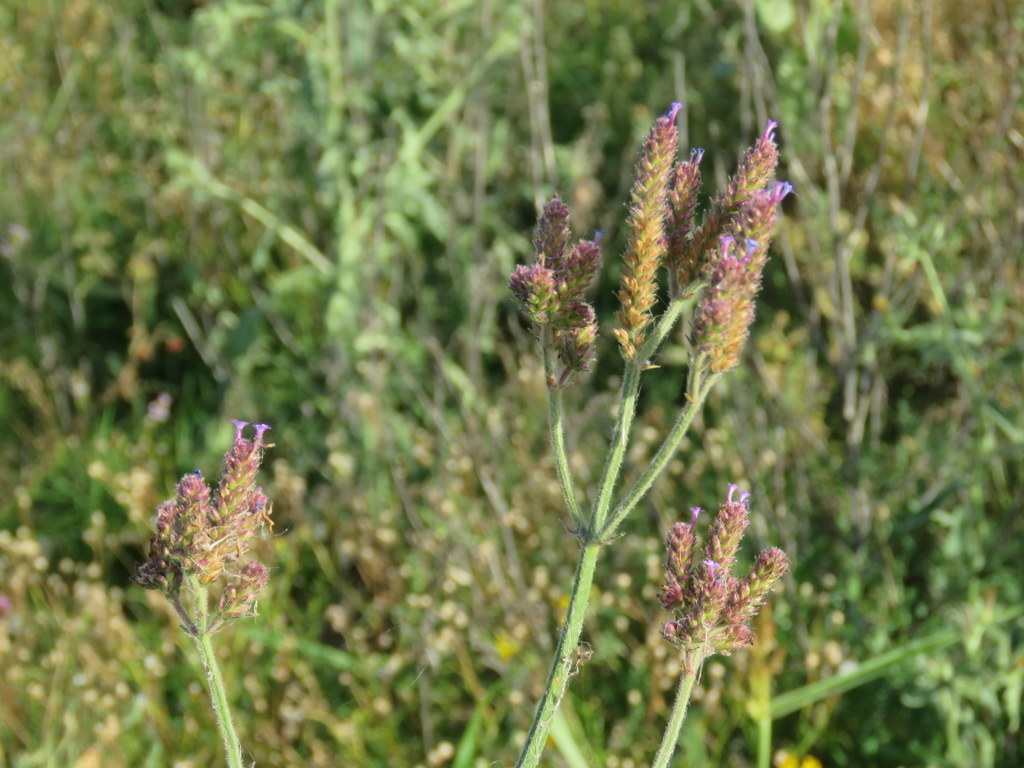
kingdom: Plantae
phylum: Tracheophyta
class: Magnoliopsida
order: Lamiales
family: Verbenaceae
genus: Verbena
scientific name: Verbena bonariensis
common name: Purpletop vervain
